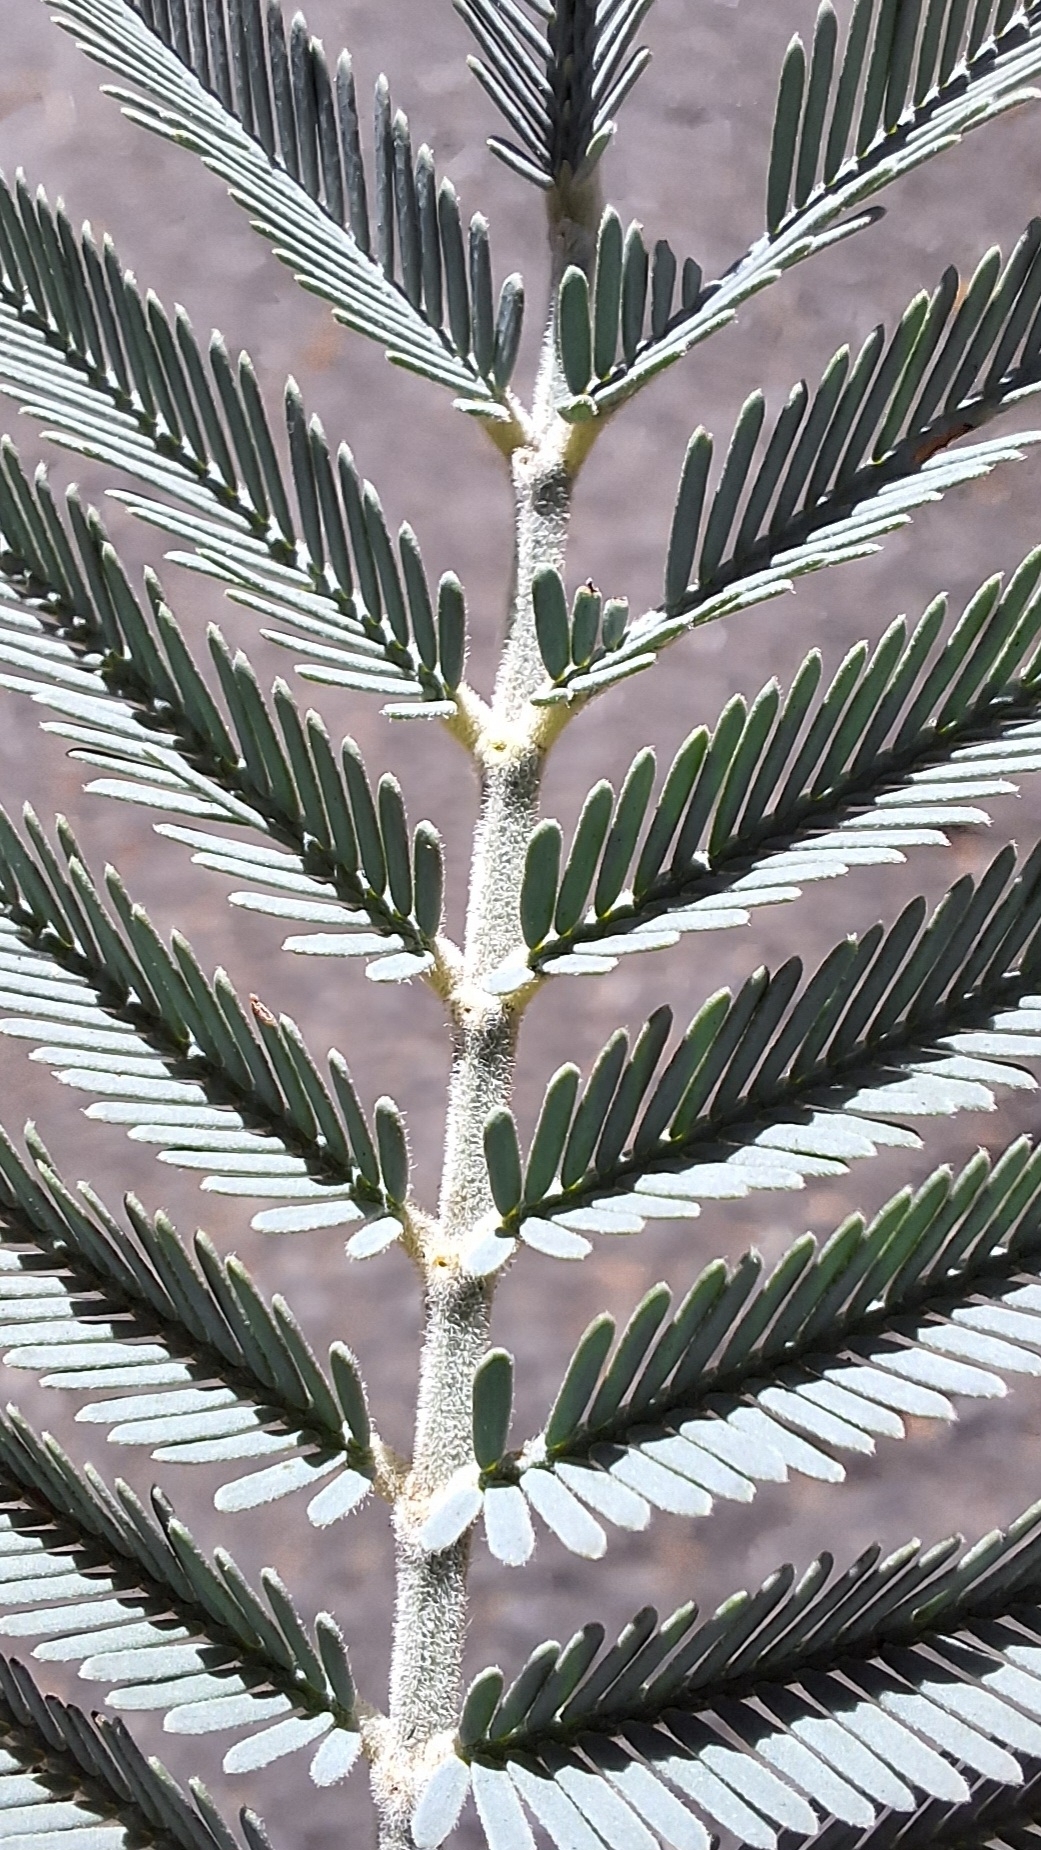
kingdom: Plantae
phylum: Tracheophyta
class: Magnoliopsida
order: Fabales
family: Fabaceae
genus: Acacia
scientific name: Acacia dealbata
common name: Silver wattle
